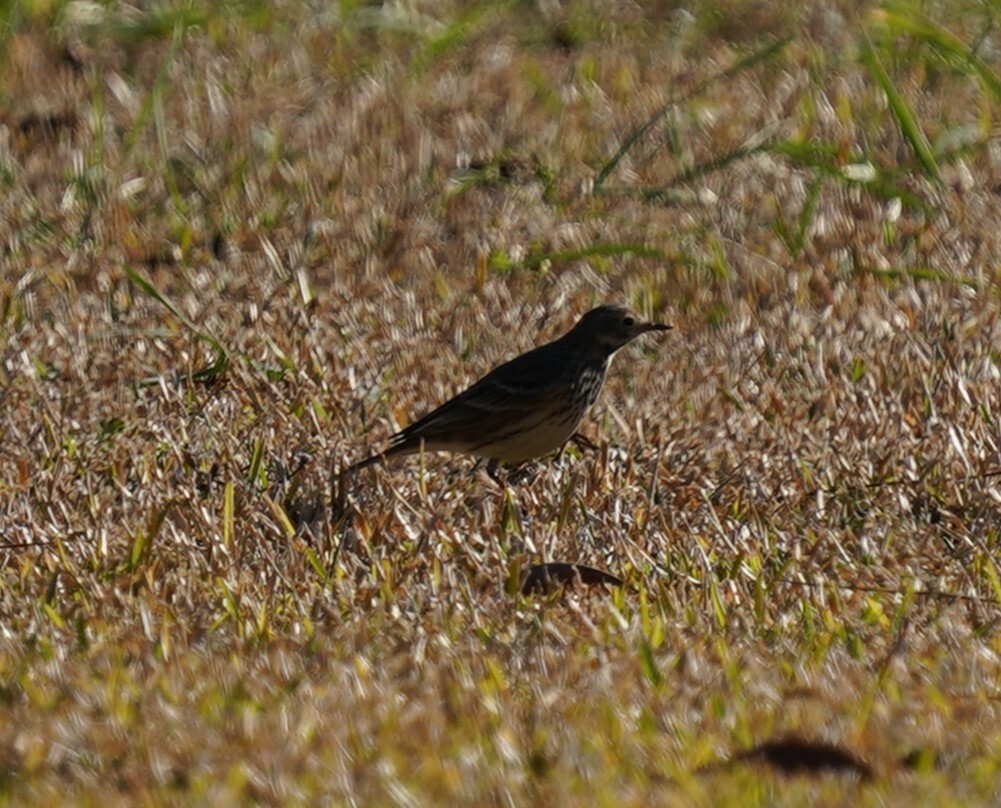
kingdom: Animalia
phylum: Chordata
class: Aves
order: Passeriformes
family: Motacillidae
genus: Anthus
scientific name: Anthus rubescens
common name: Buff-bellied pipit
